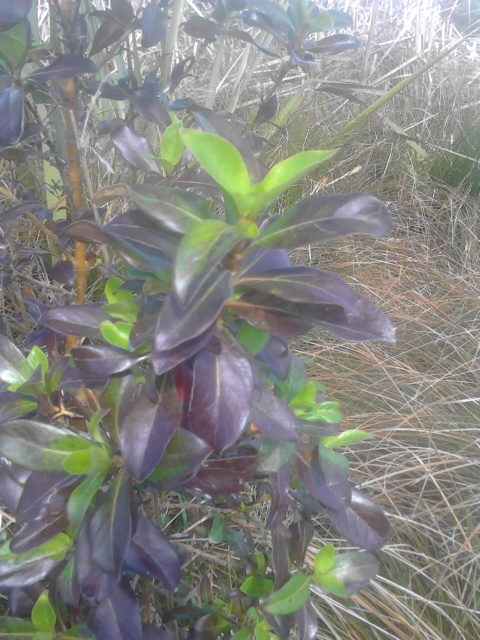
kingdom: Plantae
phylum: Tracheophyta
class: Magnoliopsida
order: Gentianales
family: Rubiaceae
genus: Coprosma
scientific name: Coprosma robusta
